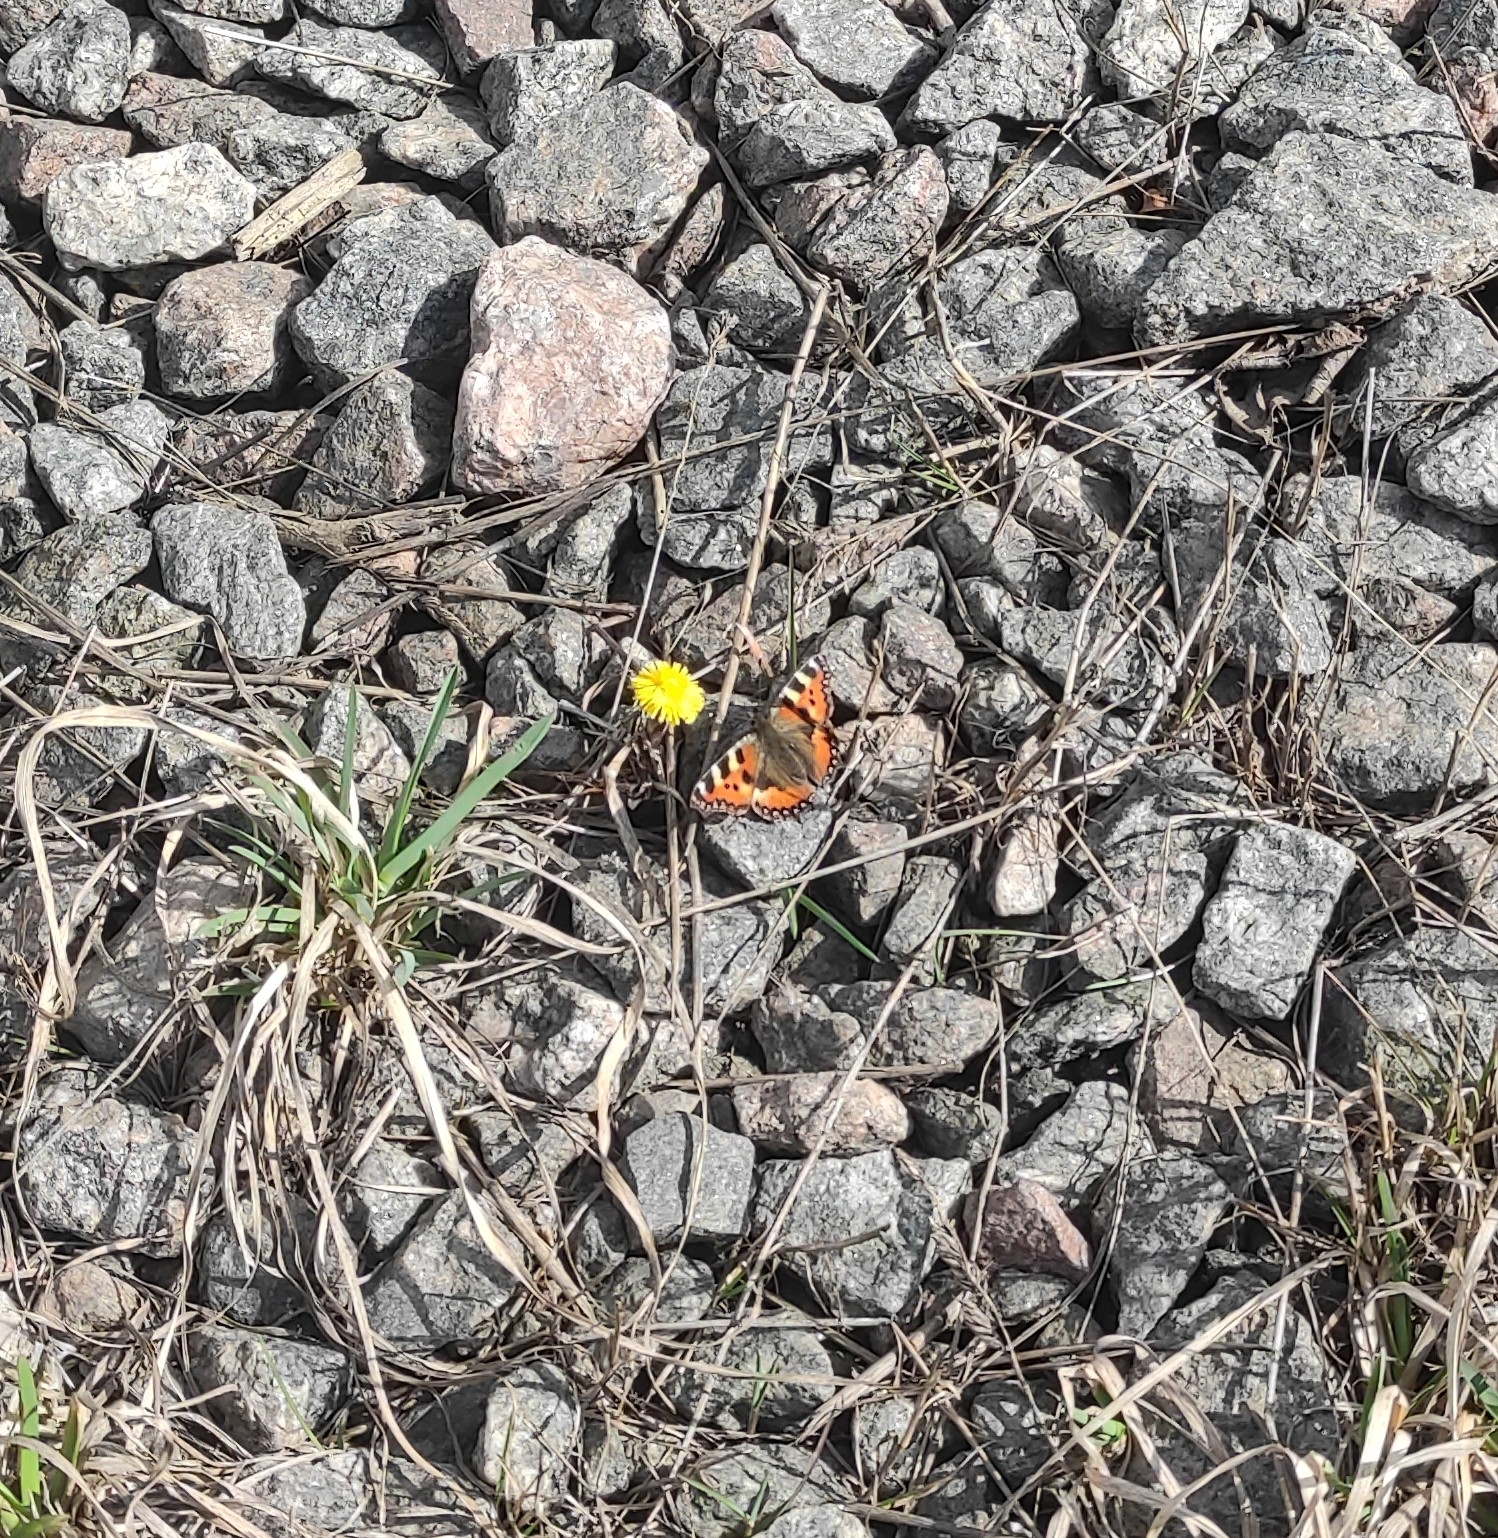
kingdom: Animalia
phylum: Arthropoda
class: Insecta
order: Lepidoptera
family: Nymphalidae
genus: Aglais
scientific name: Aglais urticae
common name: Small tortoiseshell
